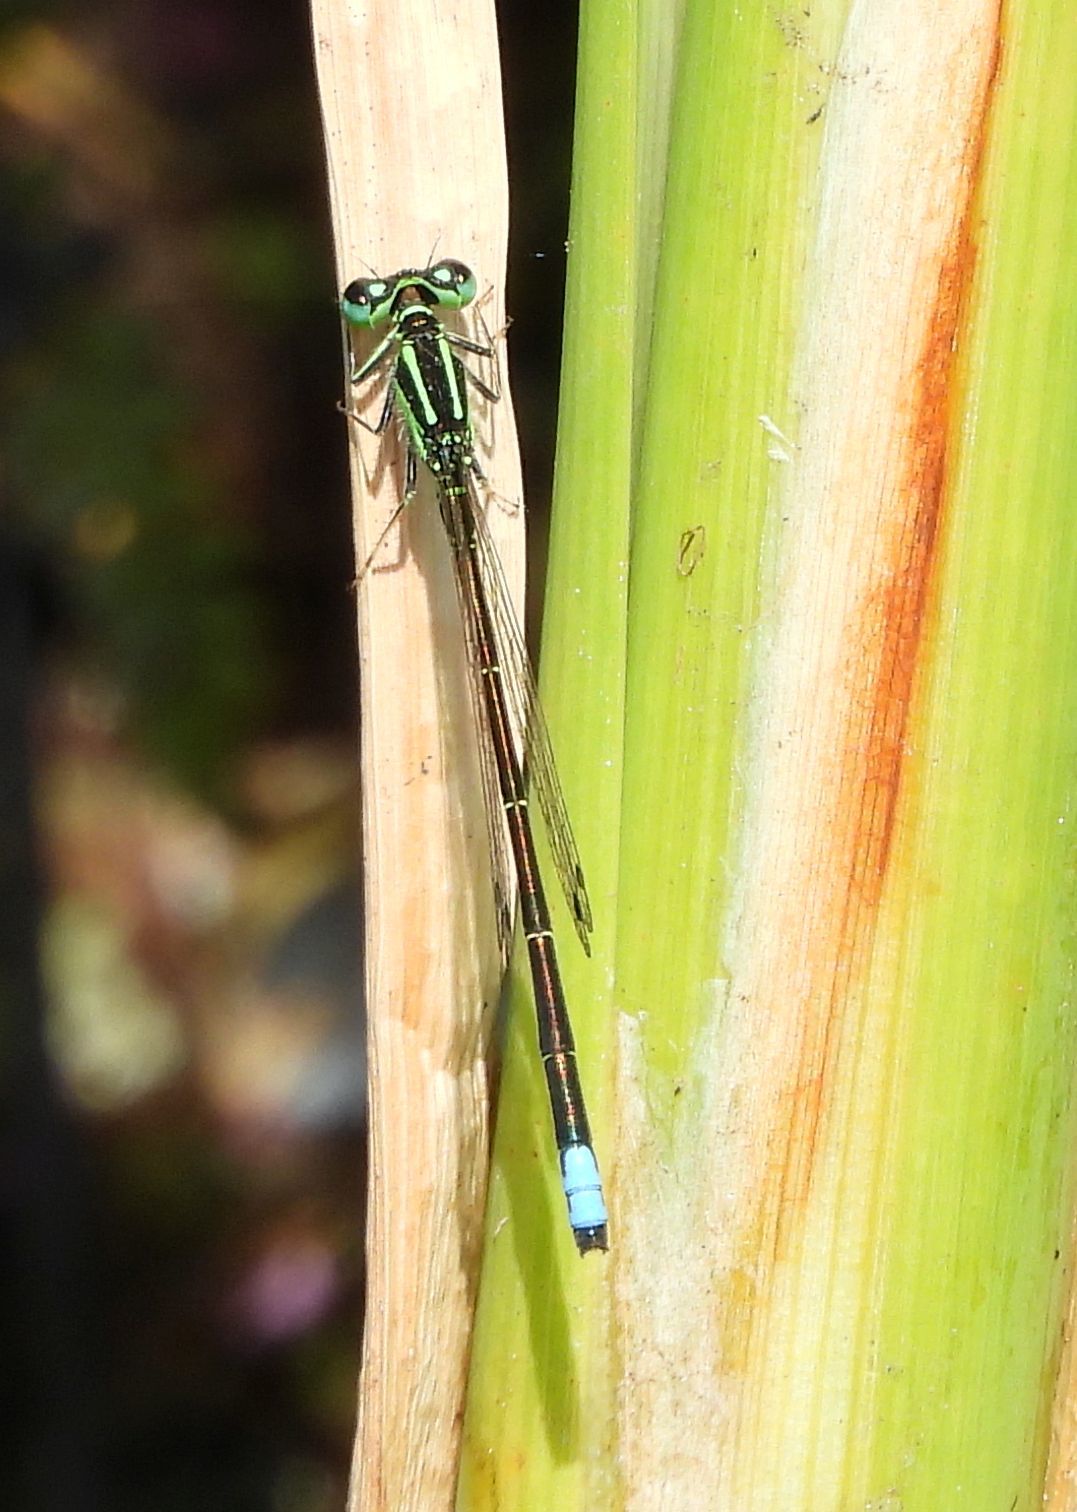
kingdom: Animalia
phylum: Arthropoda
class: Insecta
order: Odonata
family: Coenagrionidae
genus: Ischnura
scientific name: Ischnura verticalis
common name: Eastern forktail
